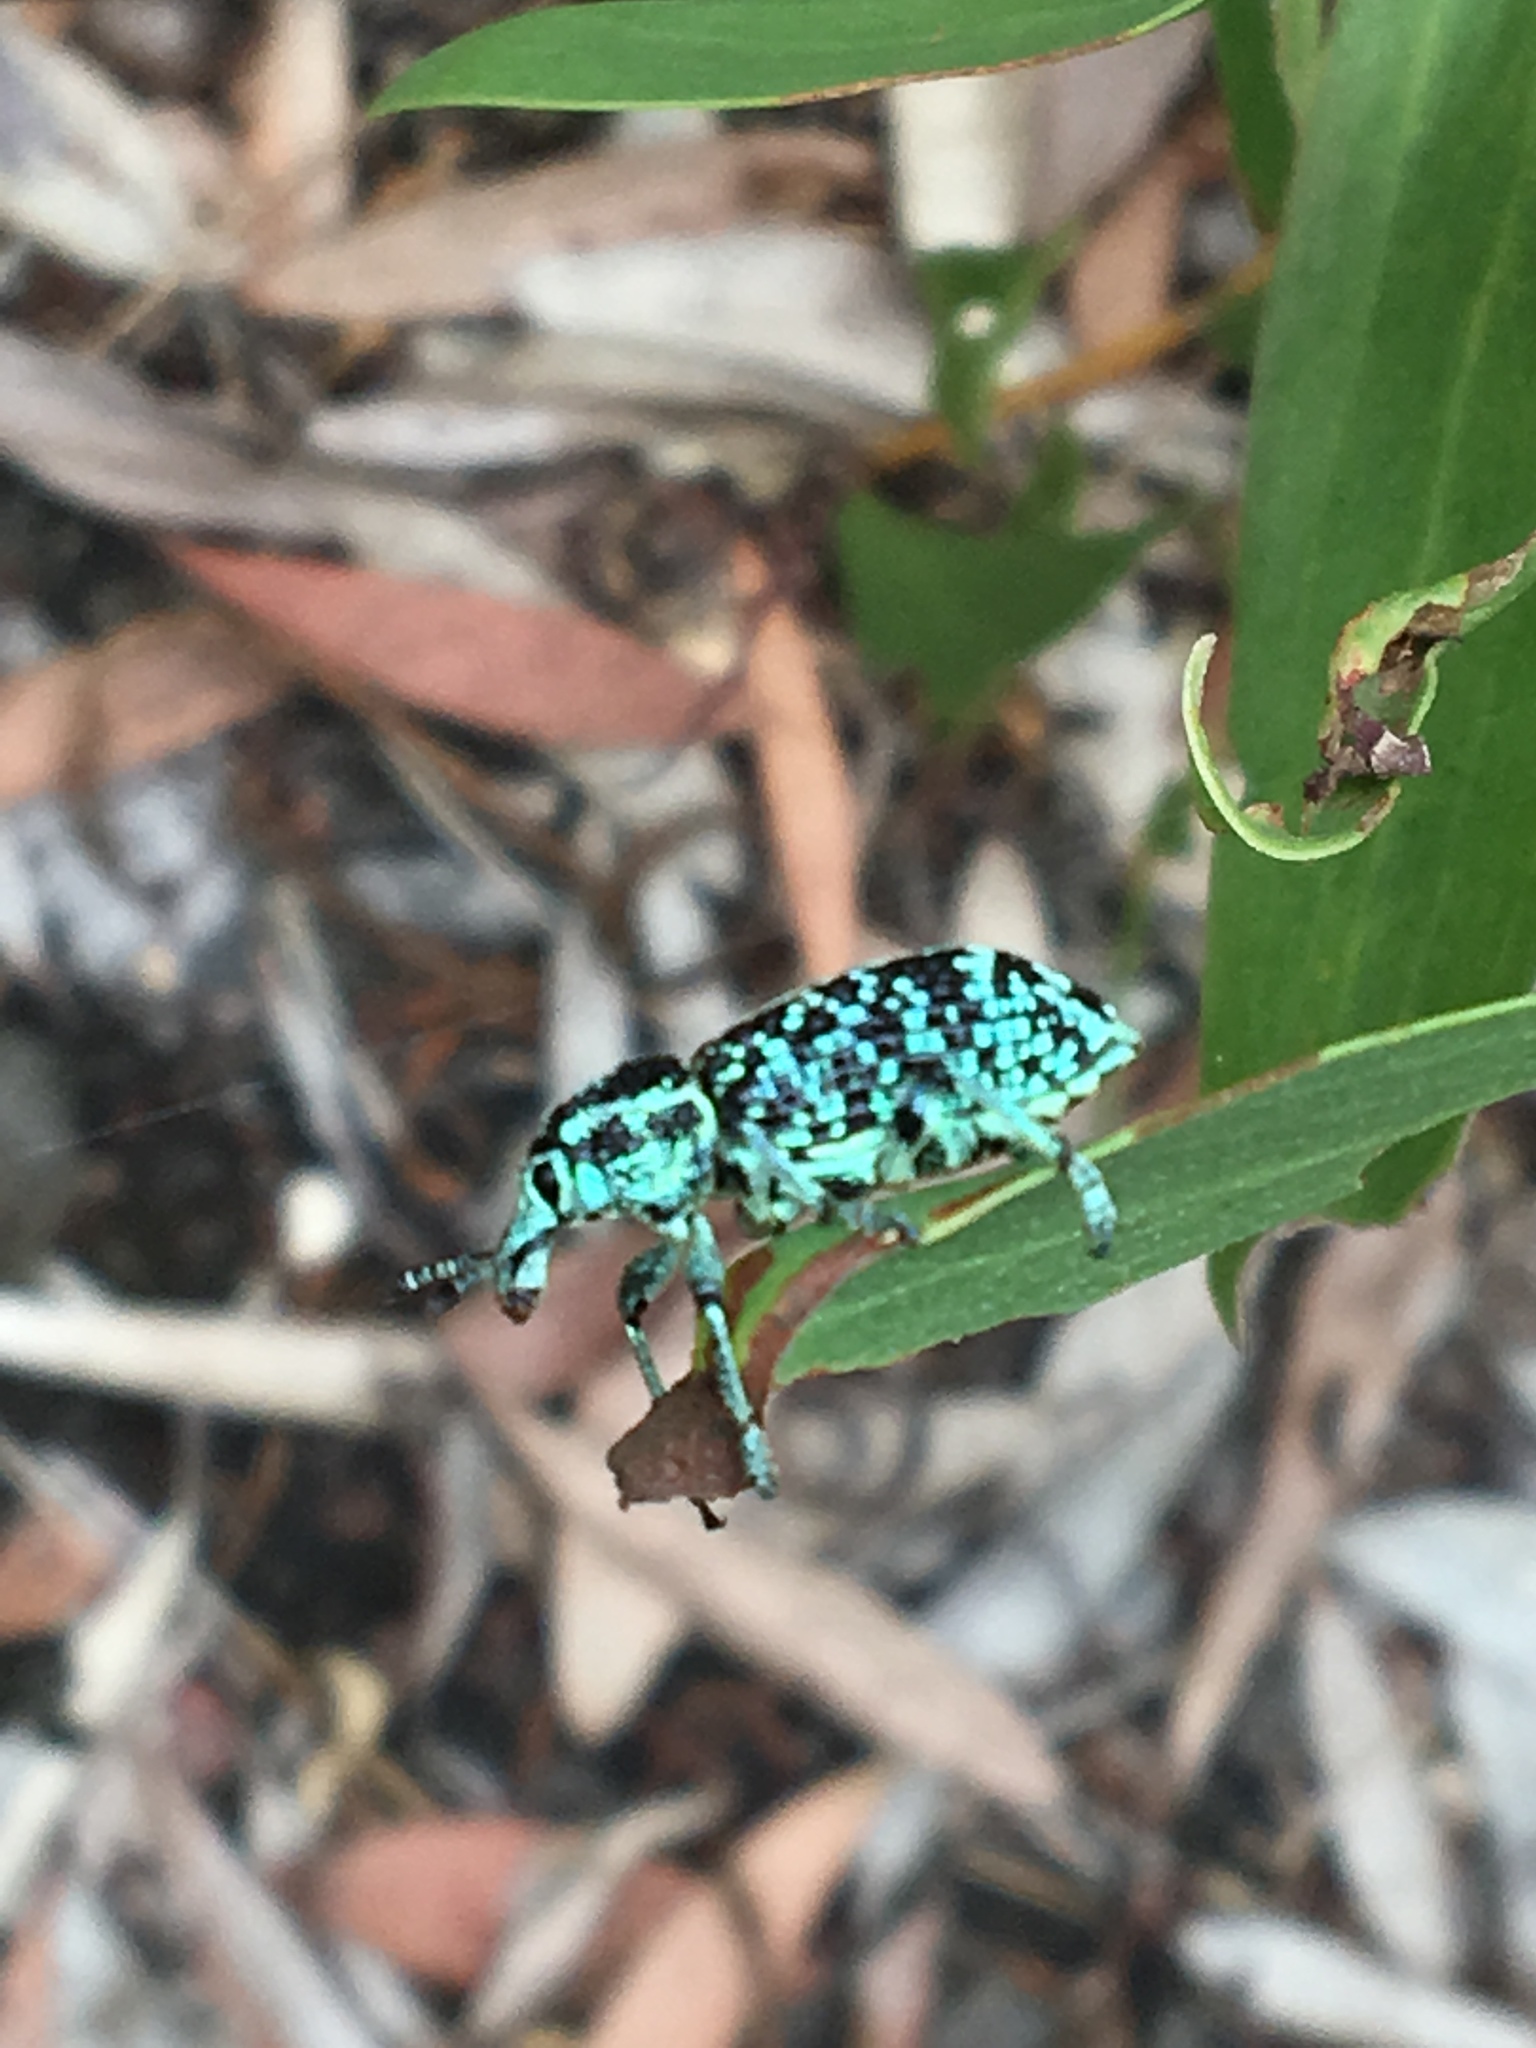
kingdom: Animalia
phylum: Arthropoda
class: Insecta
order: Coleoptera
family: Curculionidae
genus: Chrysolopus
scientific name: Chrysolopus spectabilis
